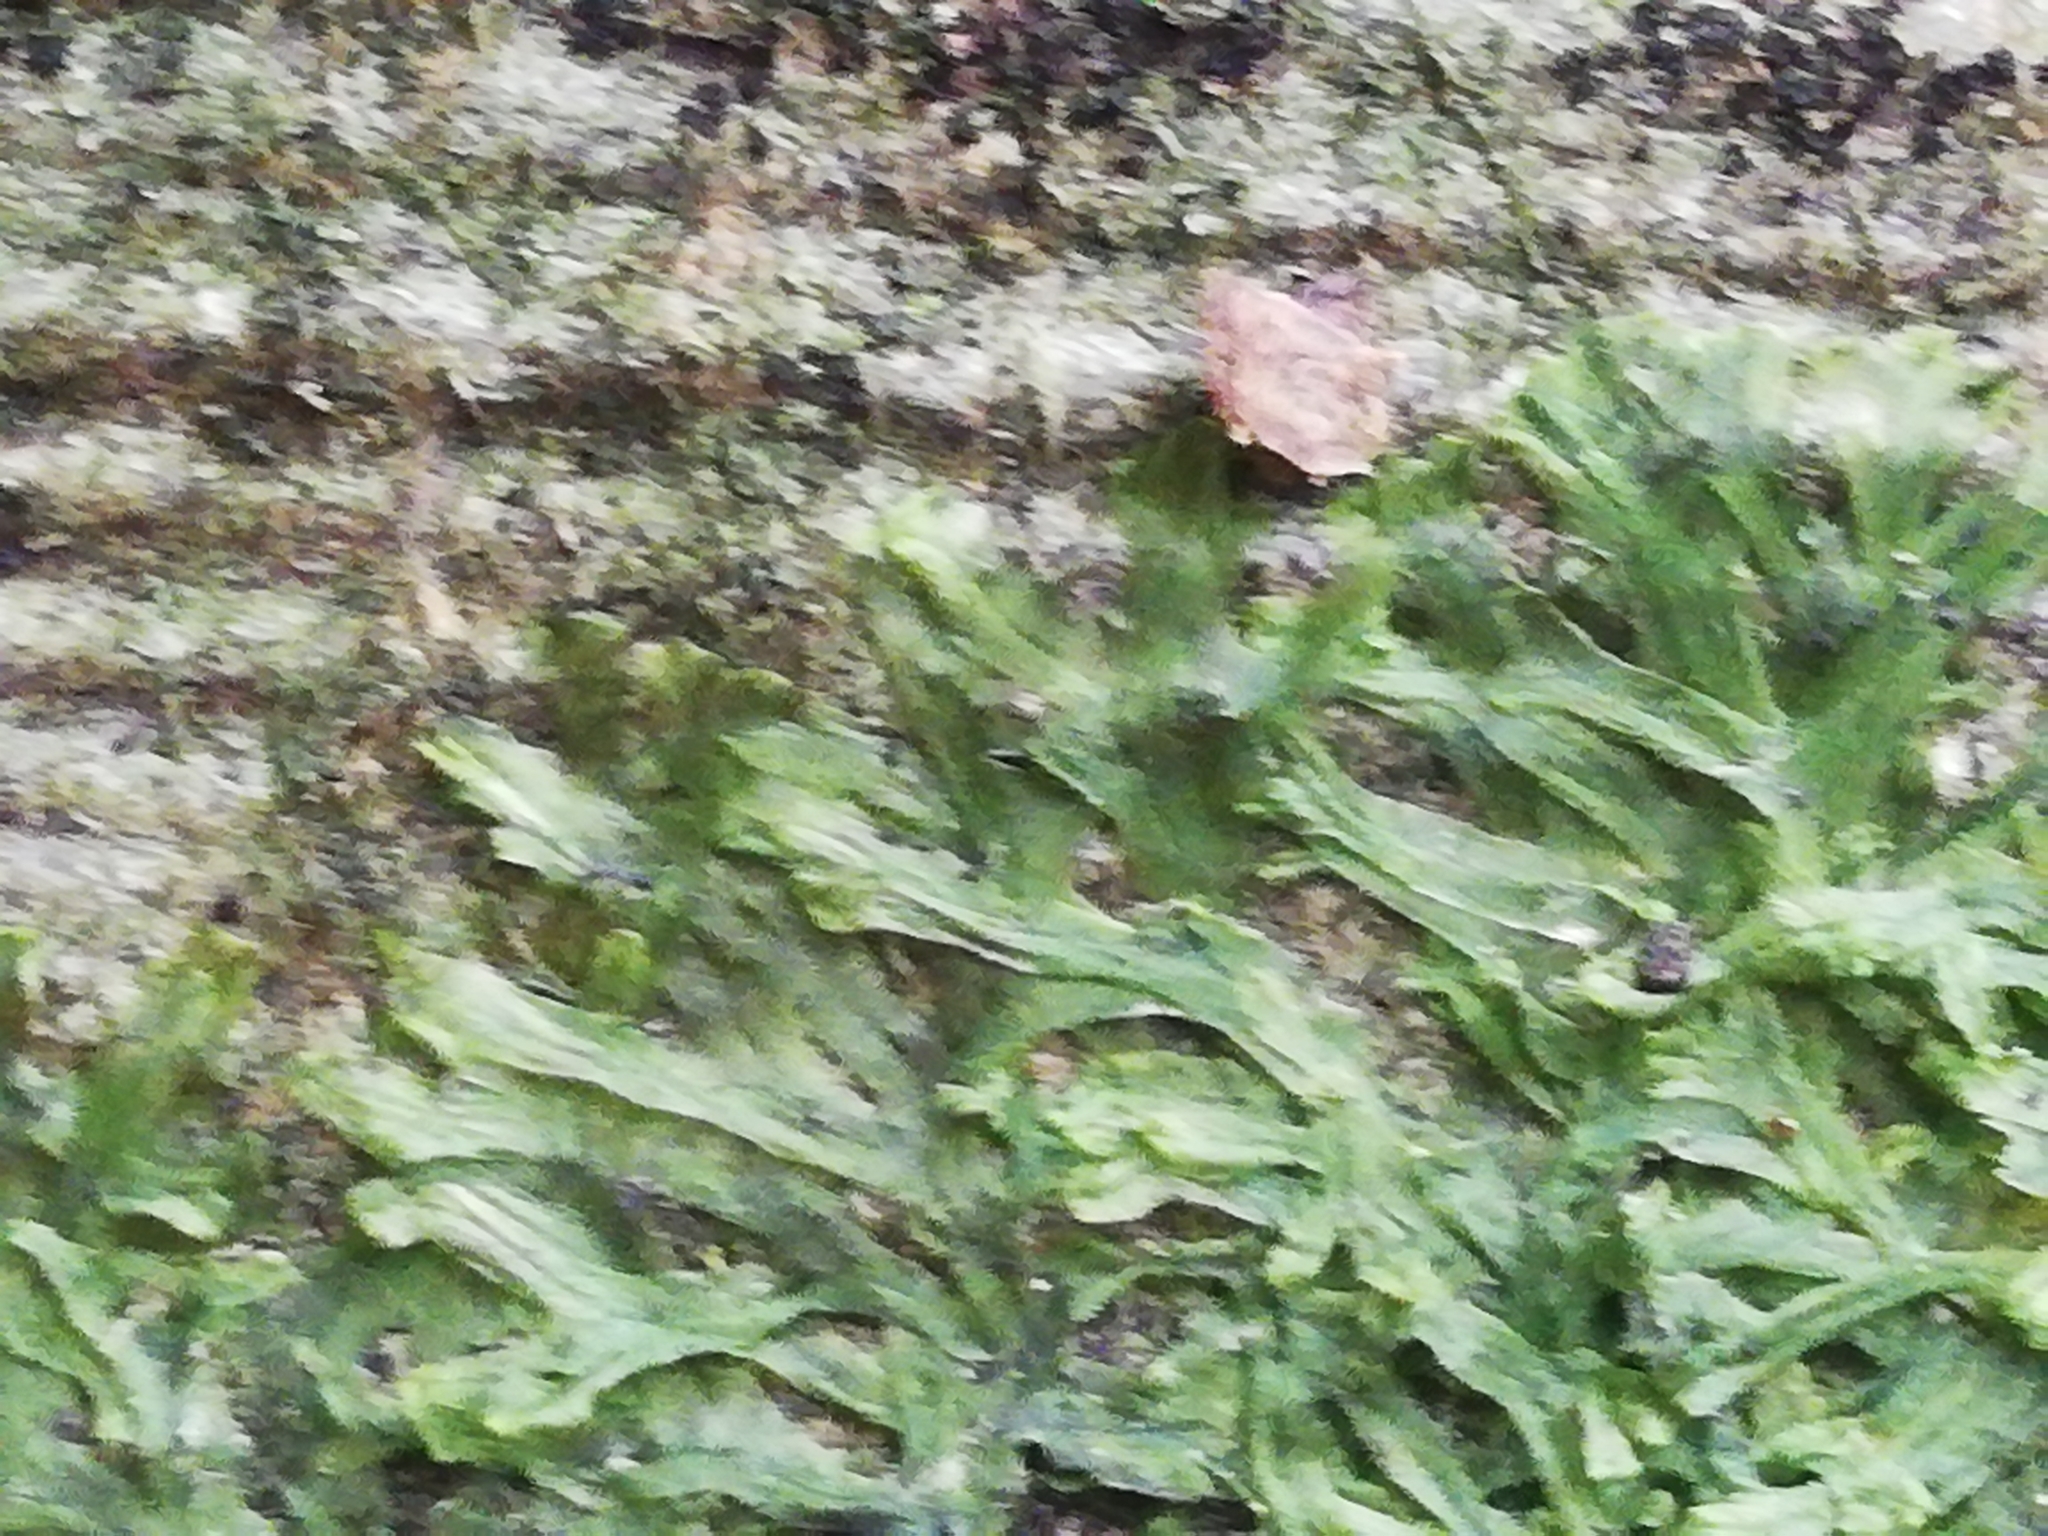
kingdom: Plantae
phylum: Marchantiophyta
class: Jungermanniopsida
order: Metzgeriales
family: Metzgeriaceae
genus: Metzgeria
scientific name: Metzgeria furcata
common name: Forked veilwort
